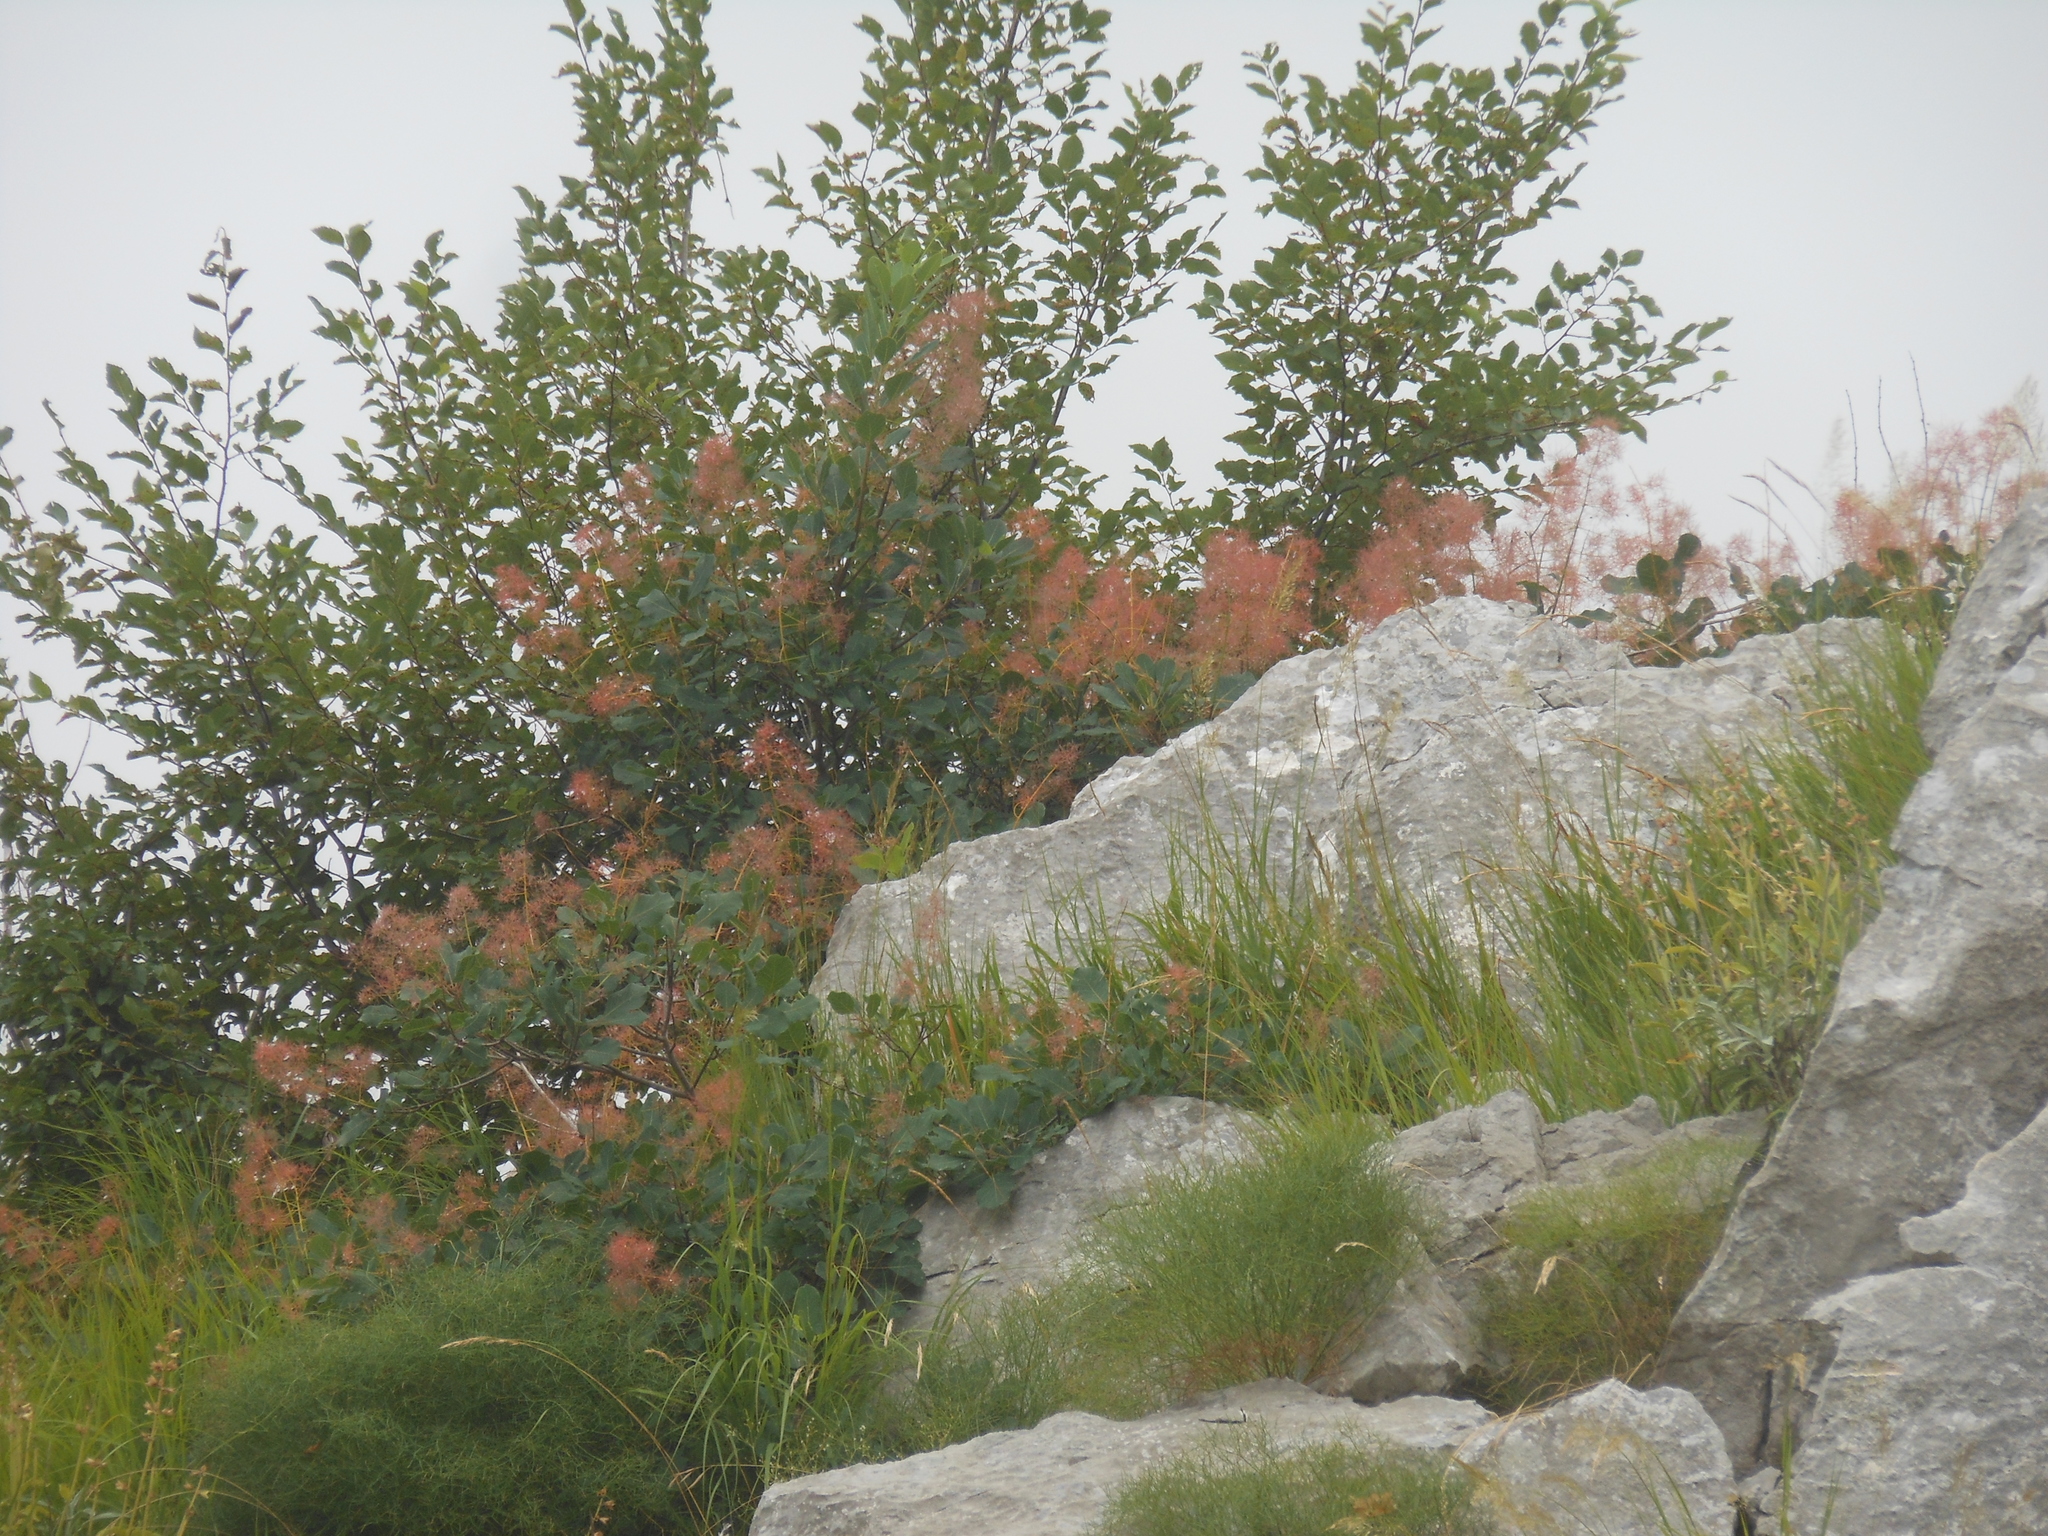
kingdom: Plantae
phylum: Tracheophyta
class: Magnoliopsida
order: Sapindales
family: Anacardiaceae
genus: Cotinus
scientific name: Cotinus coggygria
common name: Smoke-tree
